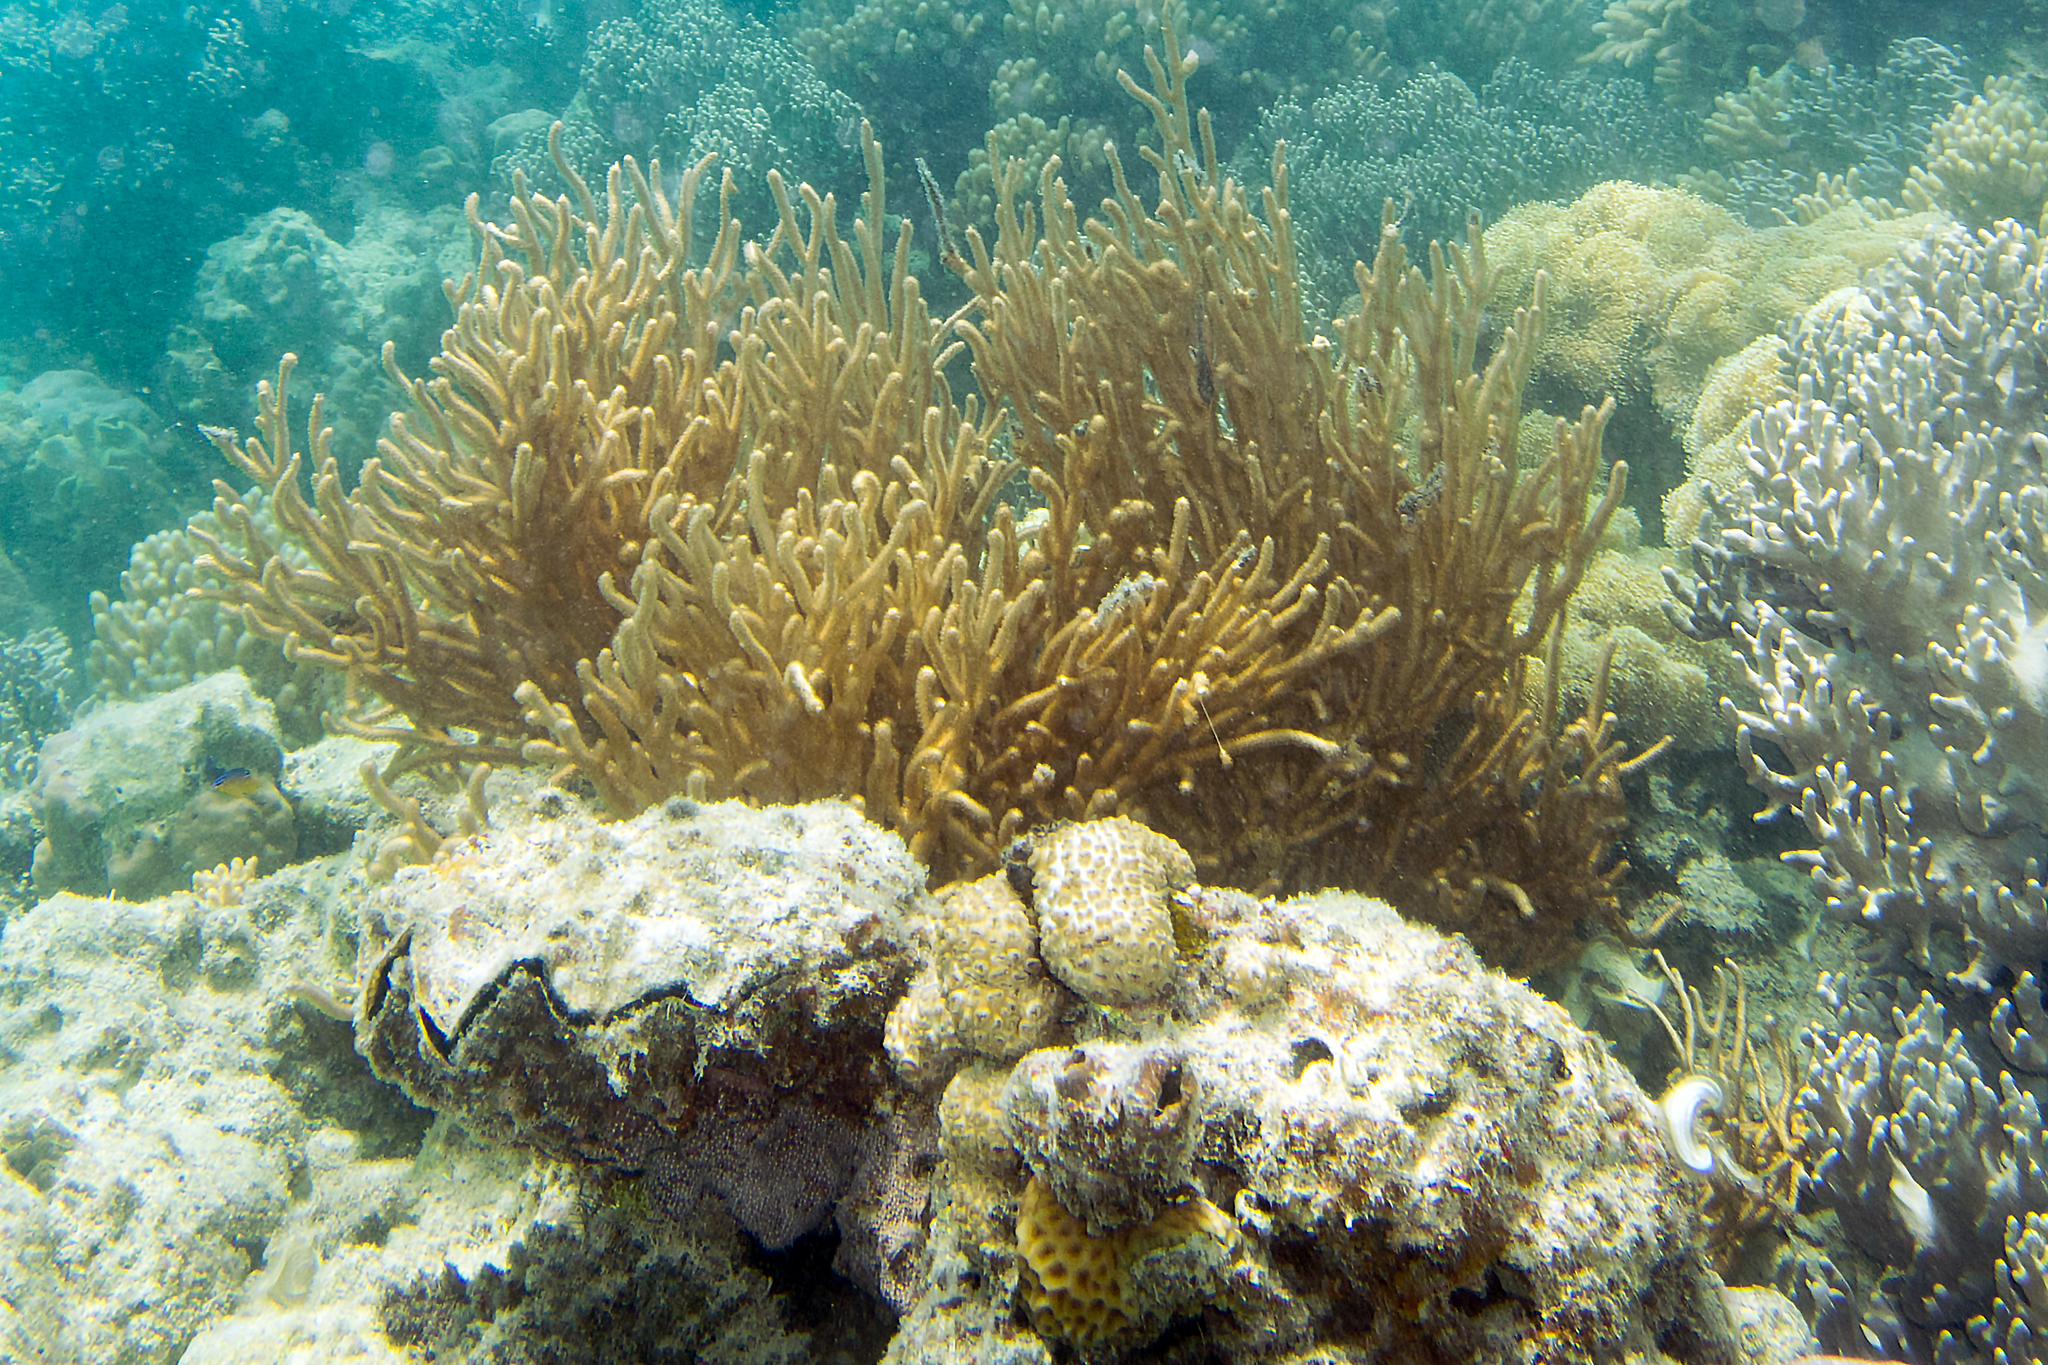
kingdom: Animalia
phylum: Mollusca
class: Bivalvia
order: Ostreida
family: Ostreidae
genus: Lopha
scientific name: Lopha cristagalli
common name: Cock's-comb oyster
